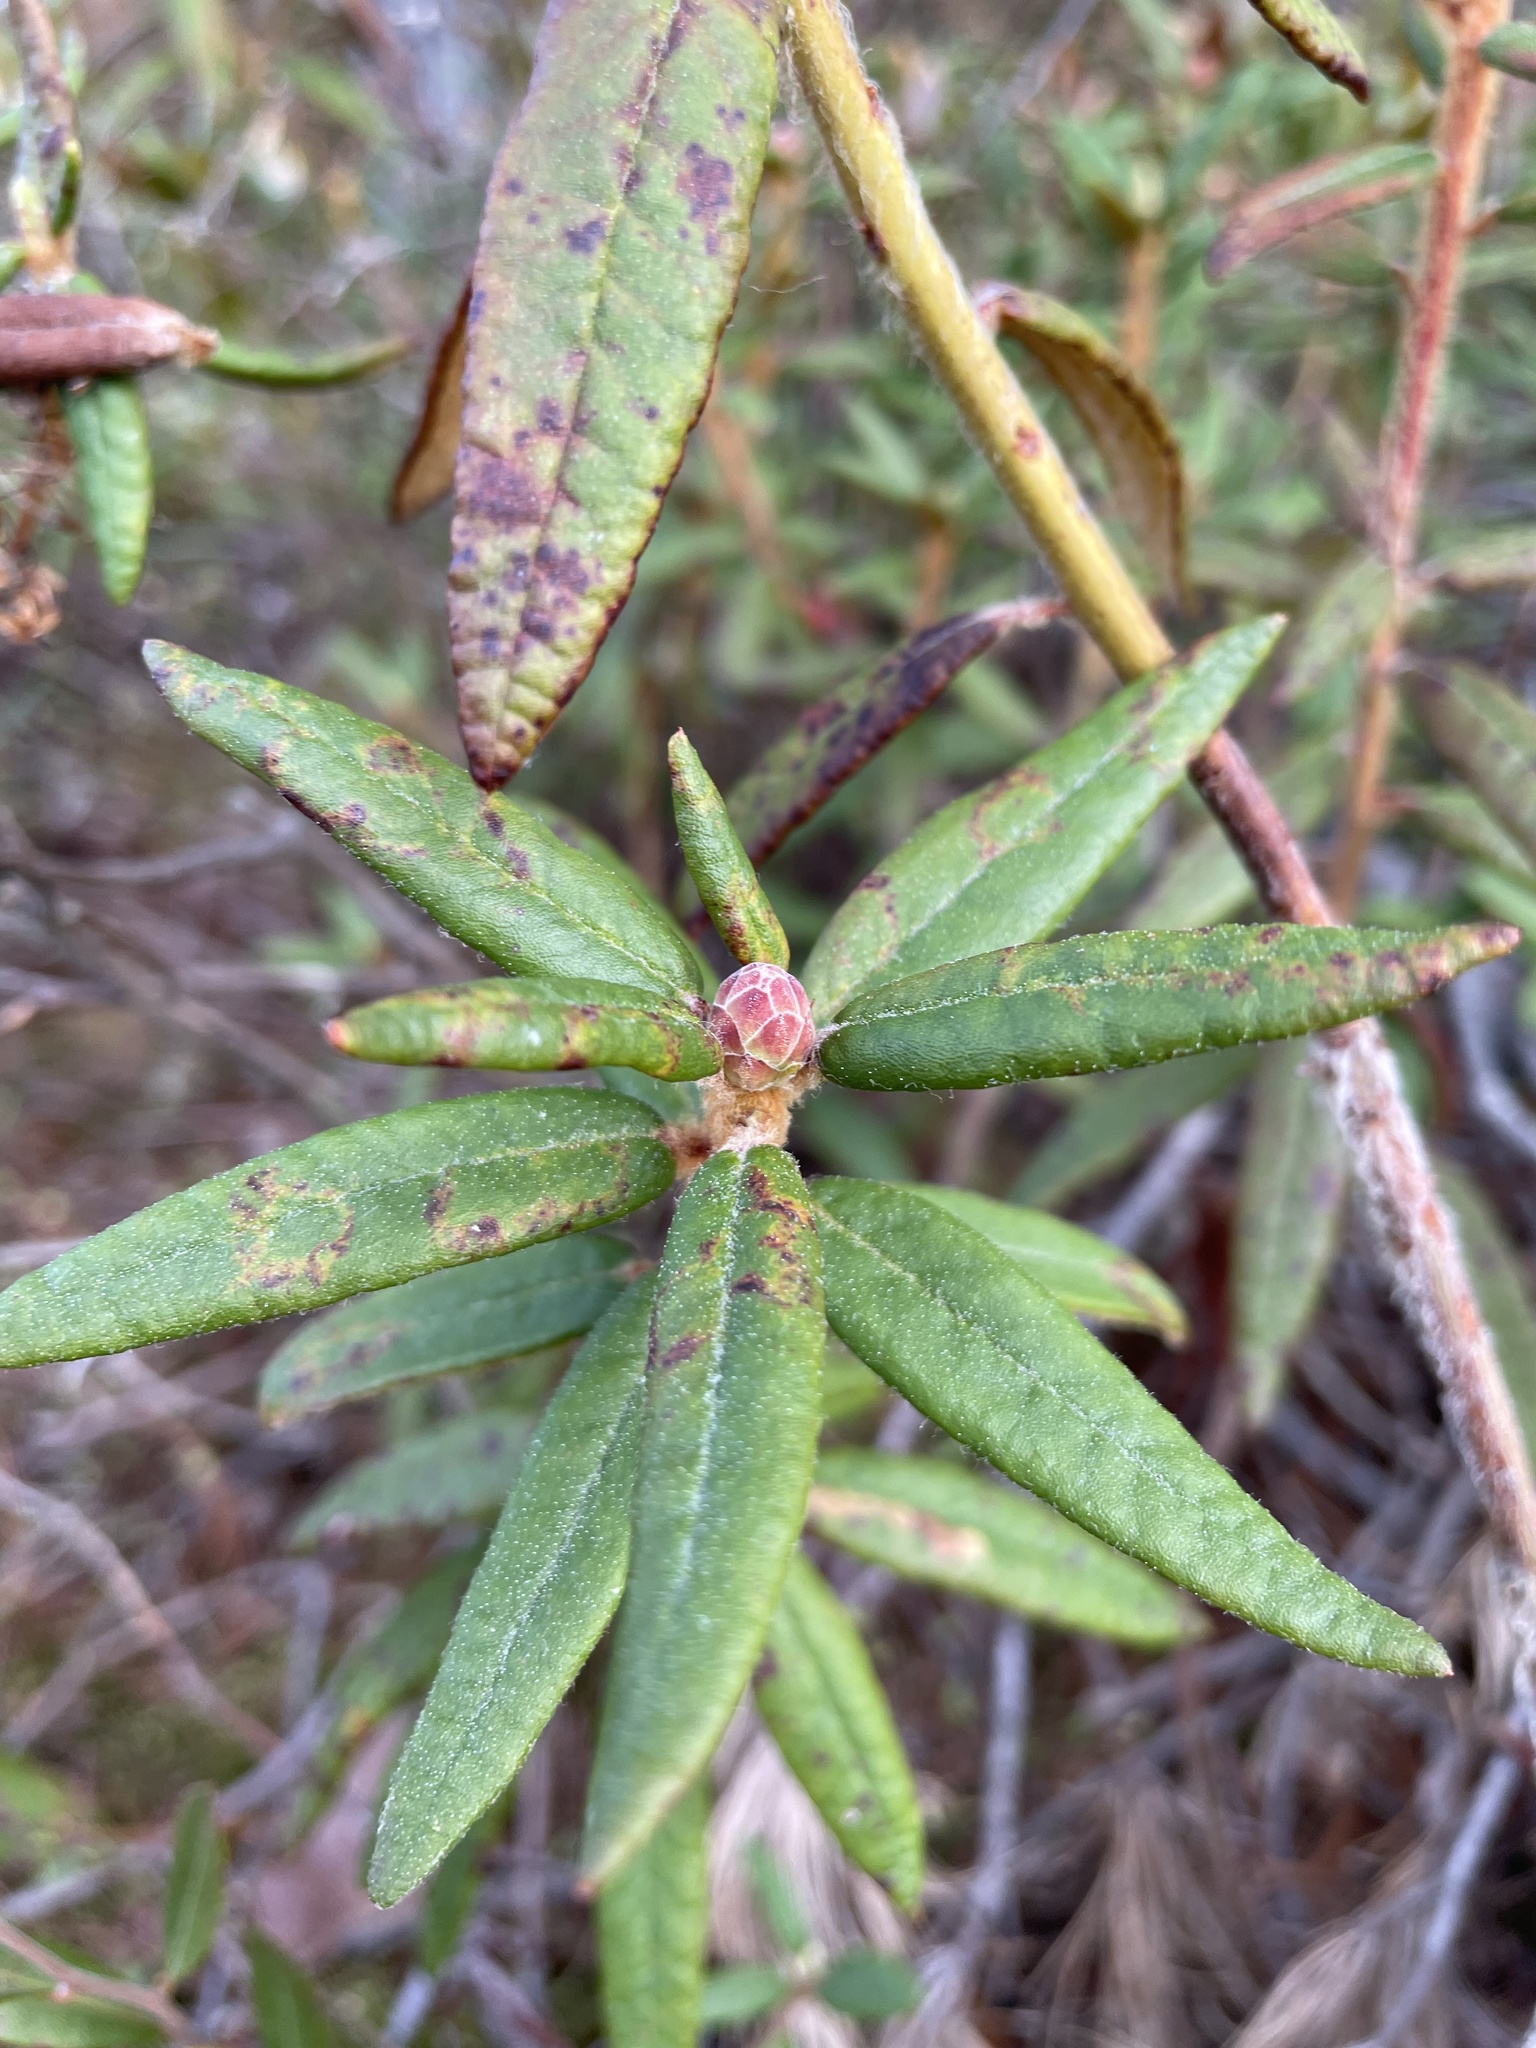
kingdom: Plantae
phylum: Tracheophyta
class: Magnoliopsida
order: Ericales
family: Ericaceae
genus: Rhododendron
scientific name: Rhododendron groenlandicum
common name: Bog labrador tea
